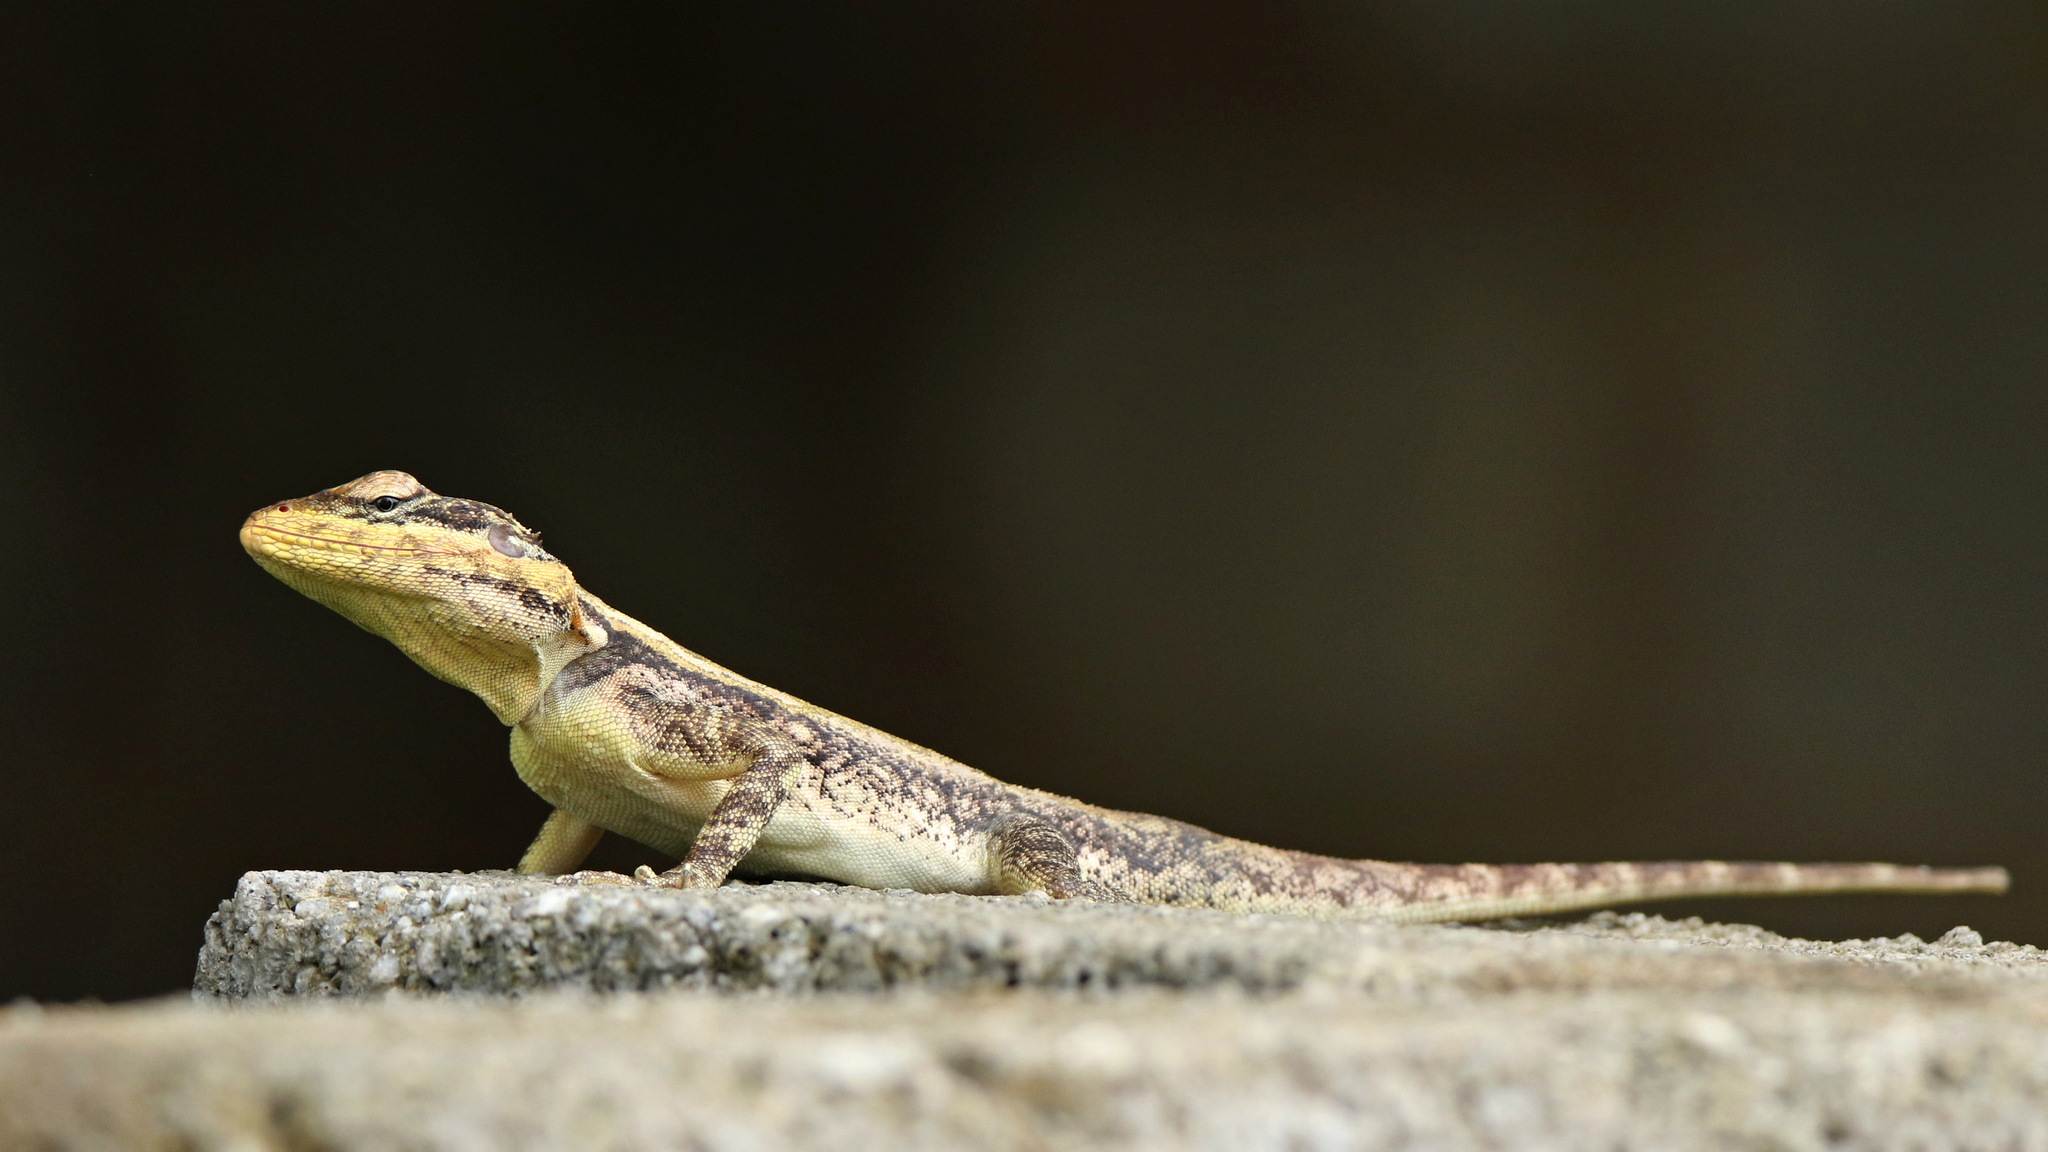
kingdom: Animalia
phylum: Chordata
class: Squamata
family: Agamidae
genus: Psammophilus
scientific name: Psammophilus dorsalis
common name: South indian rock agama
